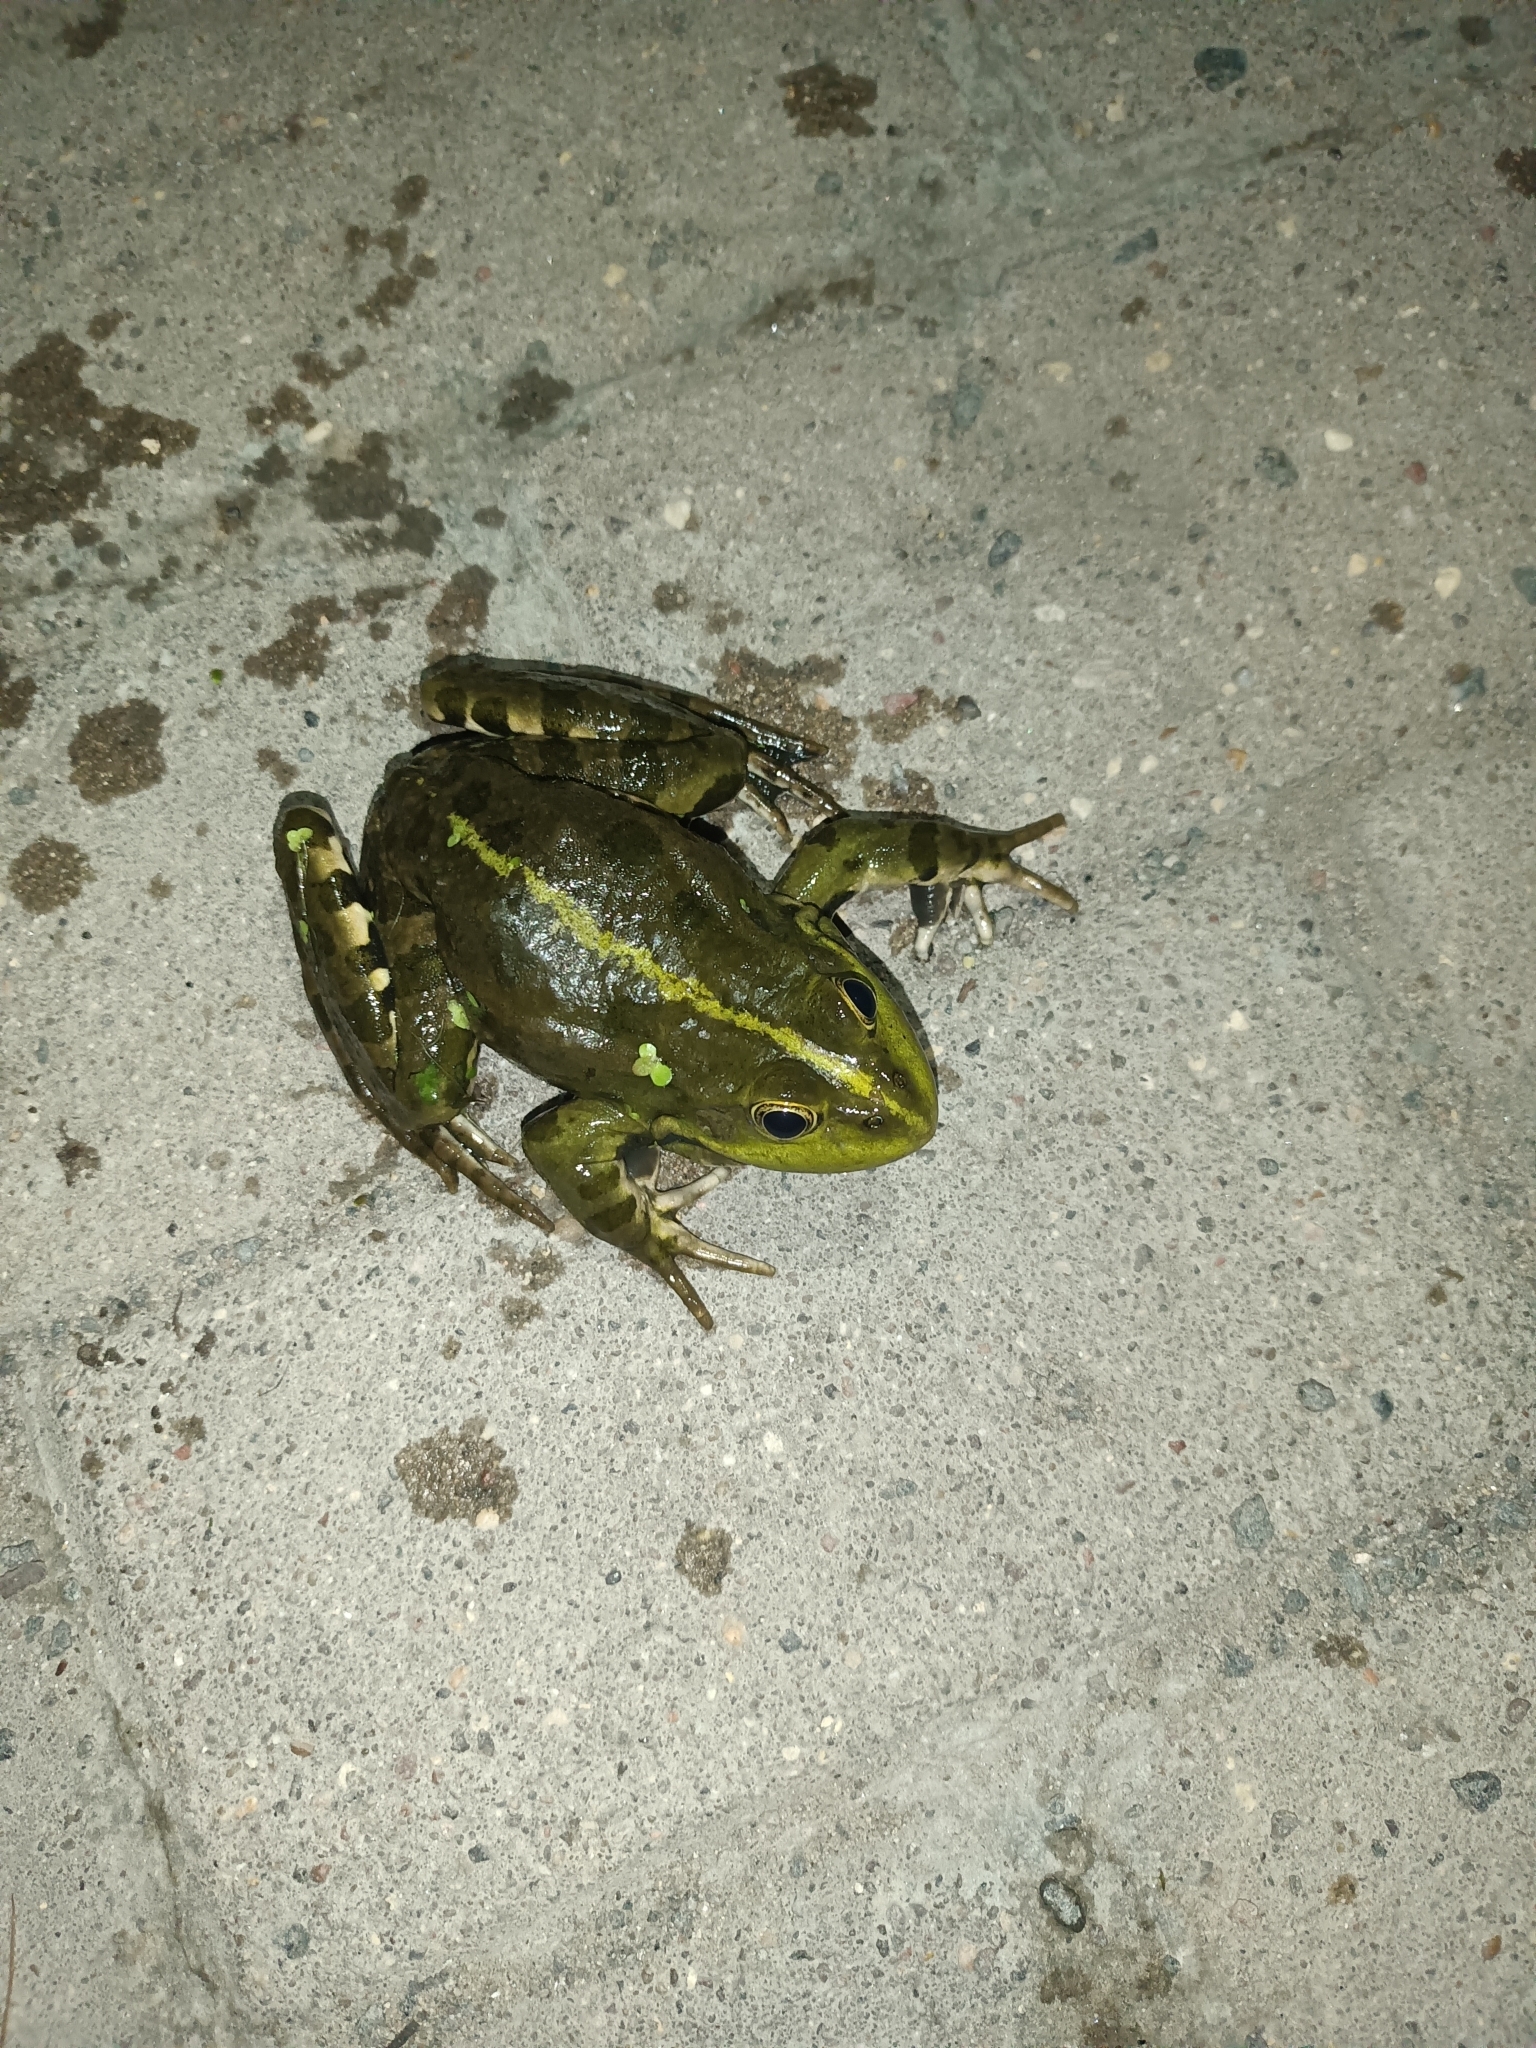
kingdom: Animalia
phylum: Chordata
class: Amphibia
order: Anura
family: Ranidae
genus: Pelophylax
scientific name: Pelophylax ridibundus
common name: Marsh frog
